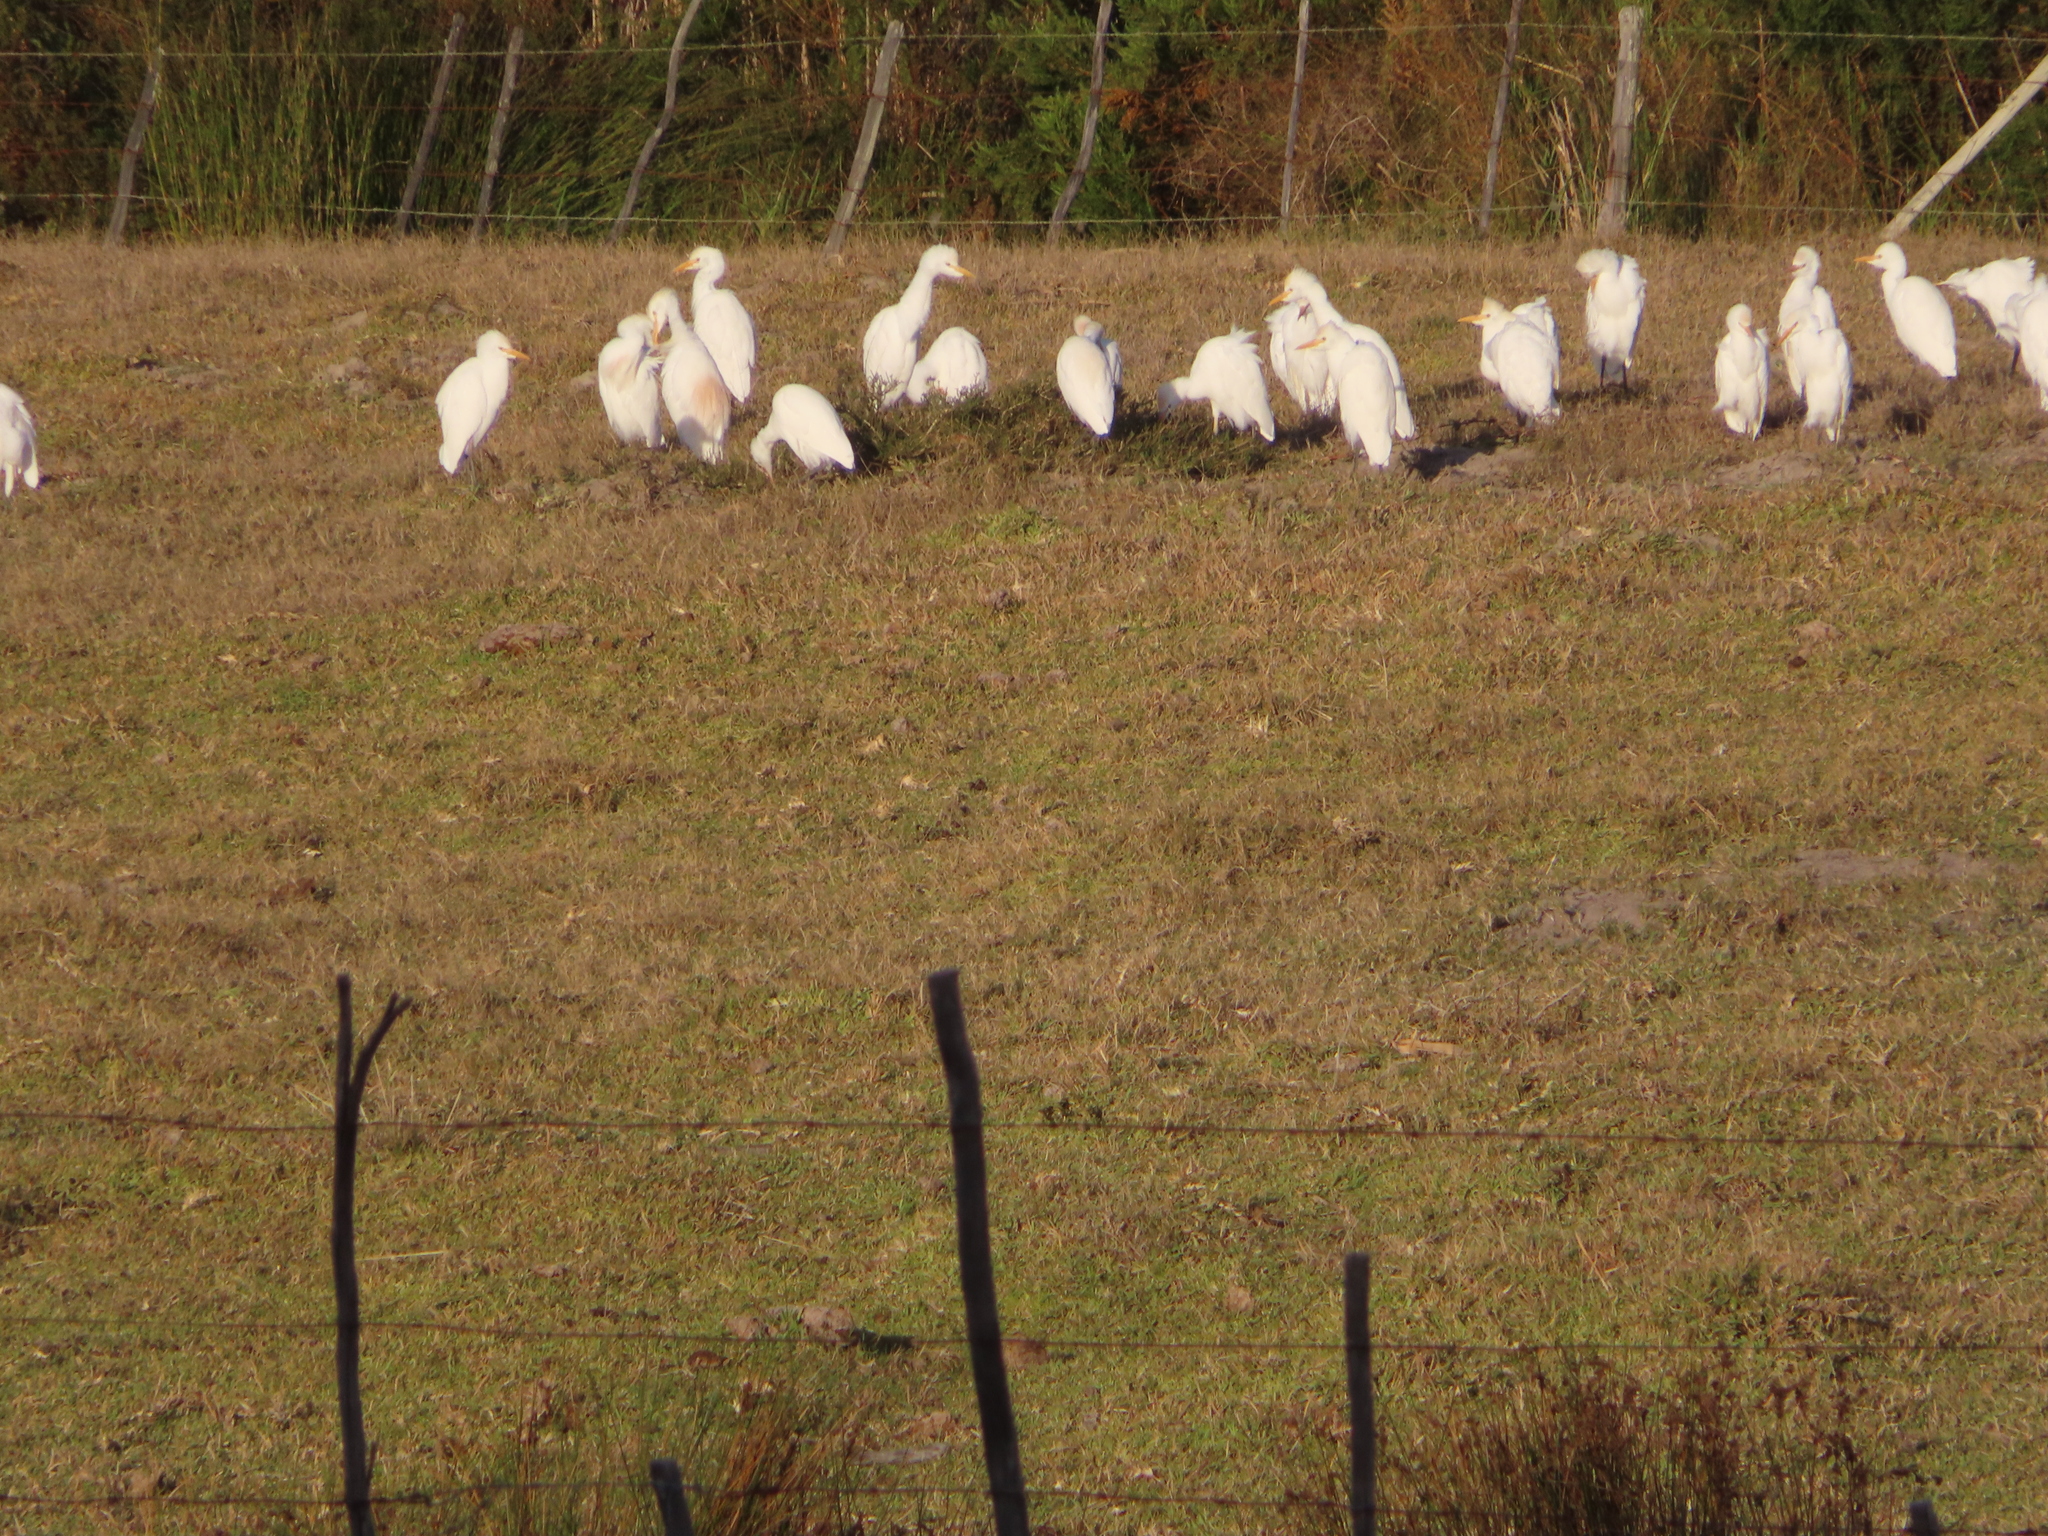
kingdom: Animalia
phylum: Chordata
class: Aves
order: Pelecaniformes
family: Ardeidae
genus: Bubulcus
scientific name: Bubulcus ibis
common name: Cattle egret
